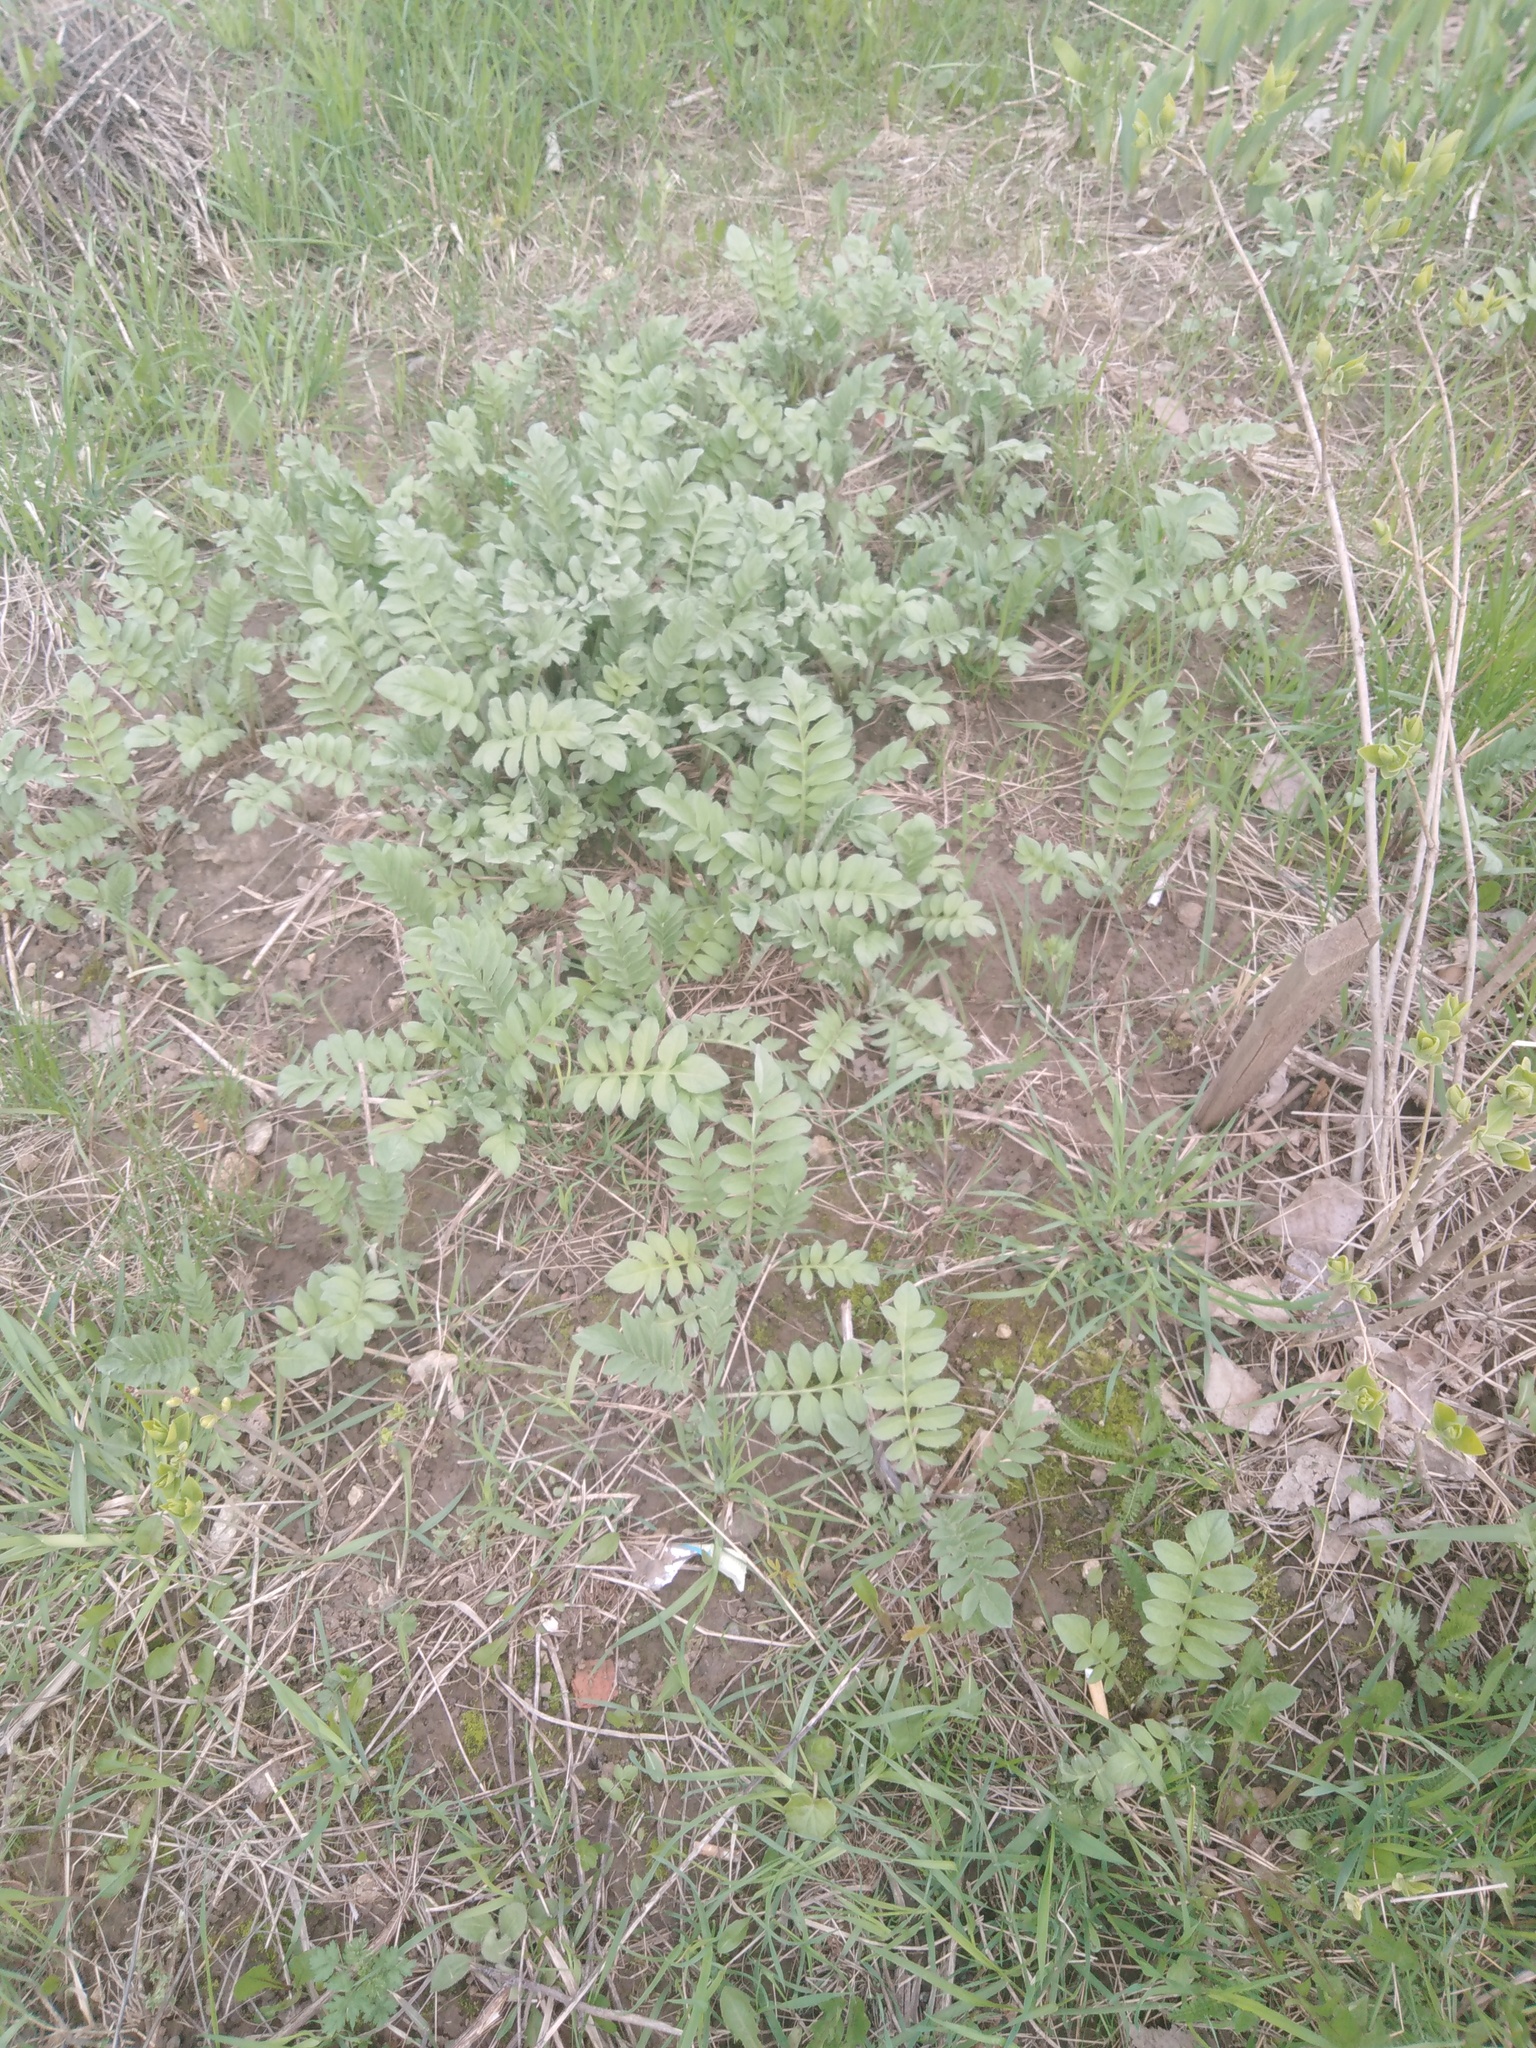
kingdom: Plantae
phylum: Tracheophyta
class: Magnoliopsida
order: Asterales
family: Asteraceae
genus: Psephellus
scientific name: Psephellus dealbatus
